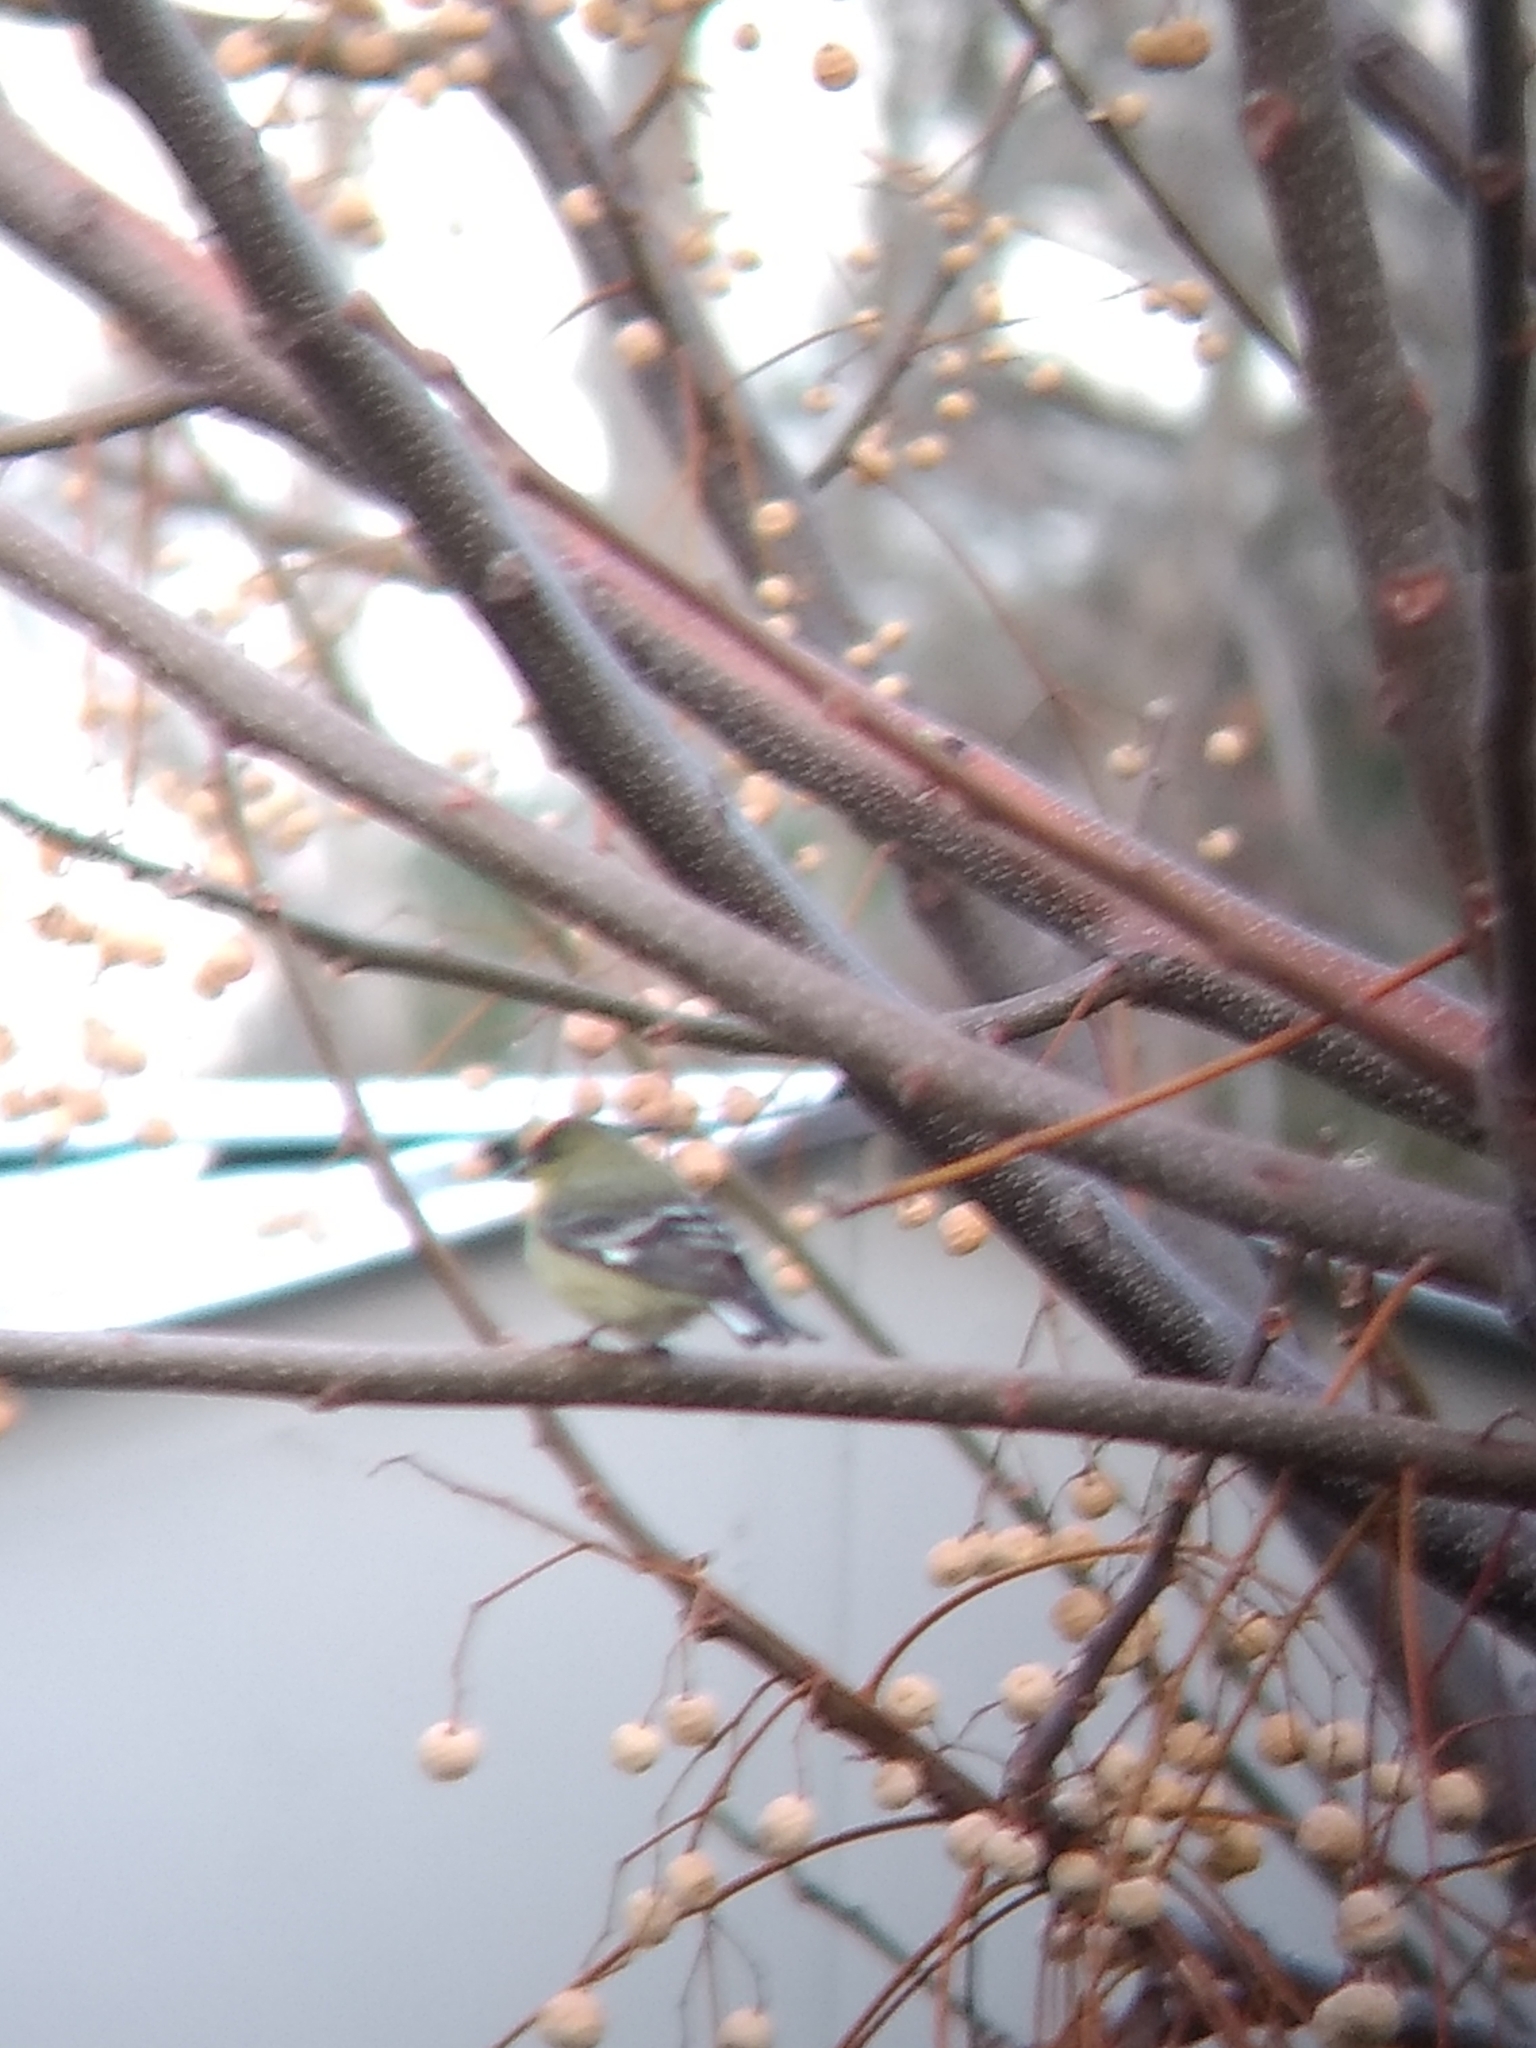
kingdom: Animalia
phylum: Chordata
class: Aves
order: Passeriformes
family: Fringillidae
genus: Spinus
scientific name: Spinus psaltria
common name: Lesser goldfinch
